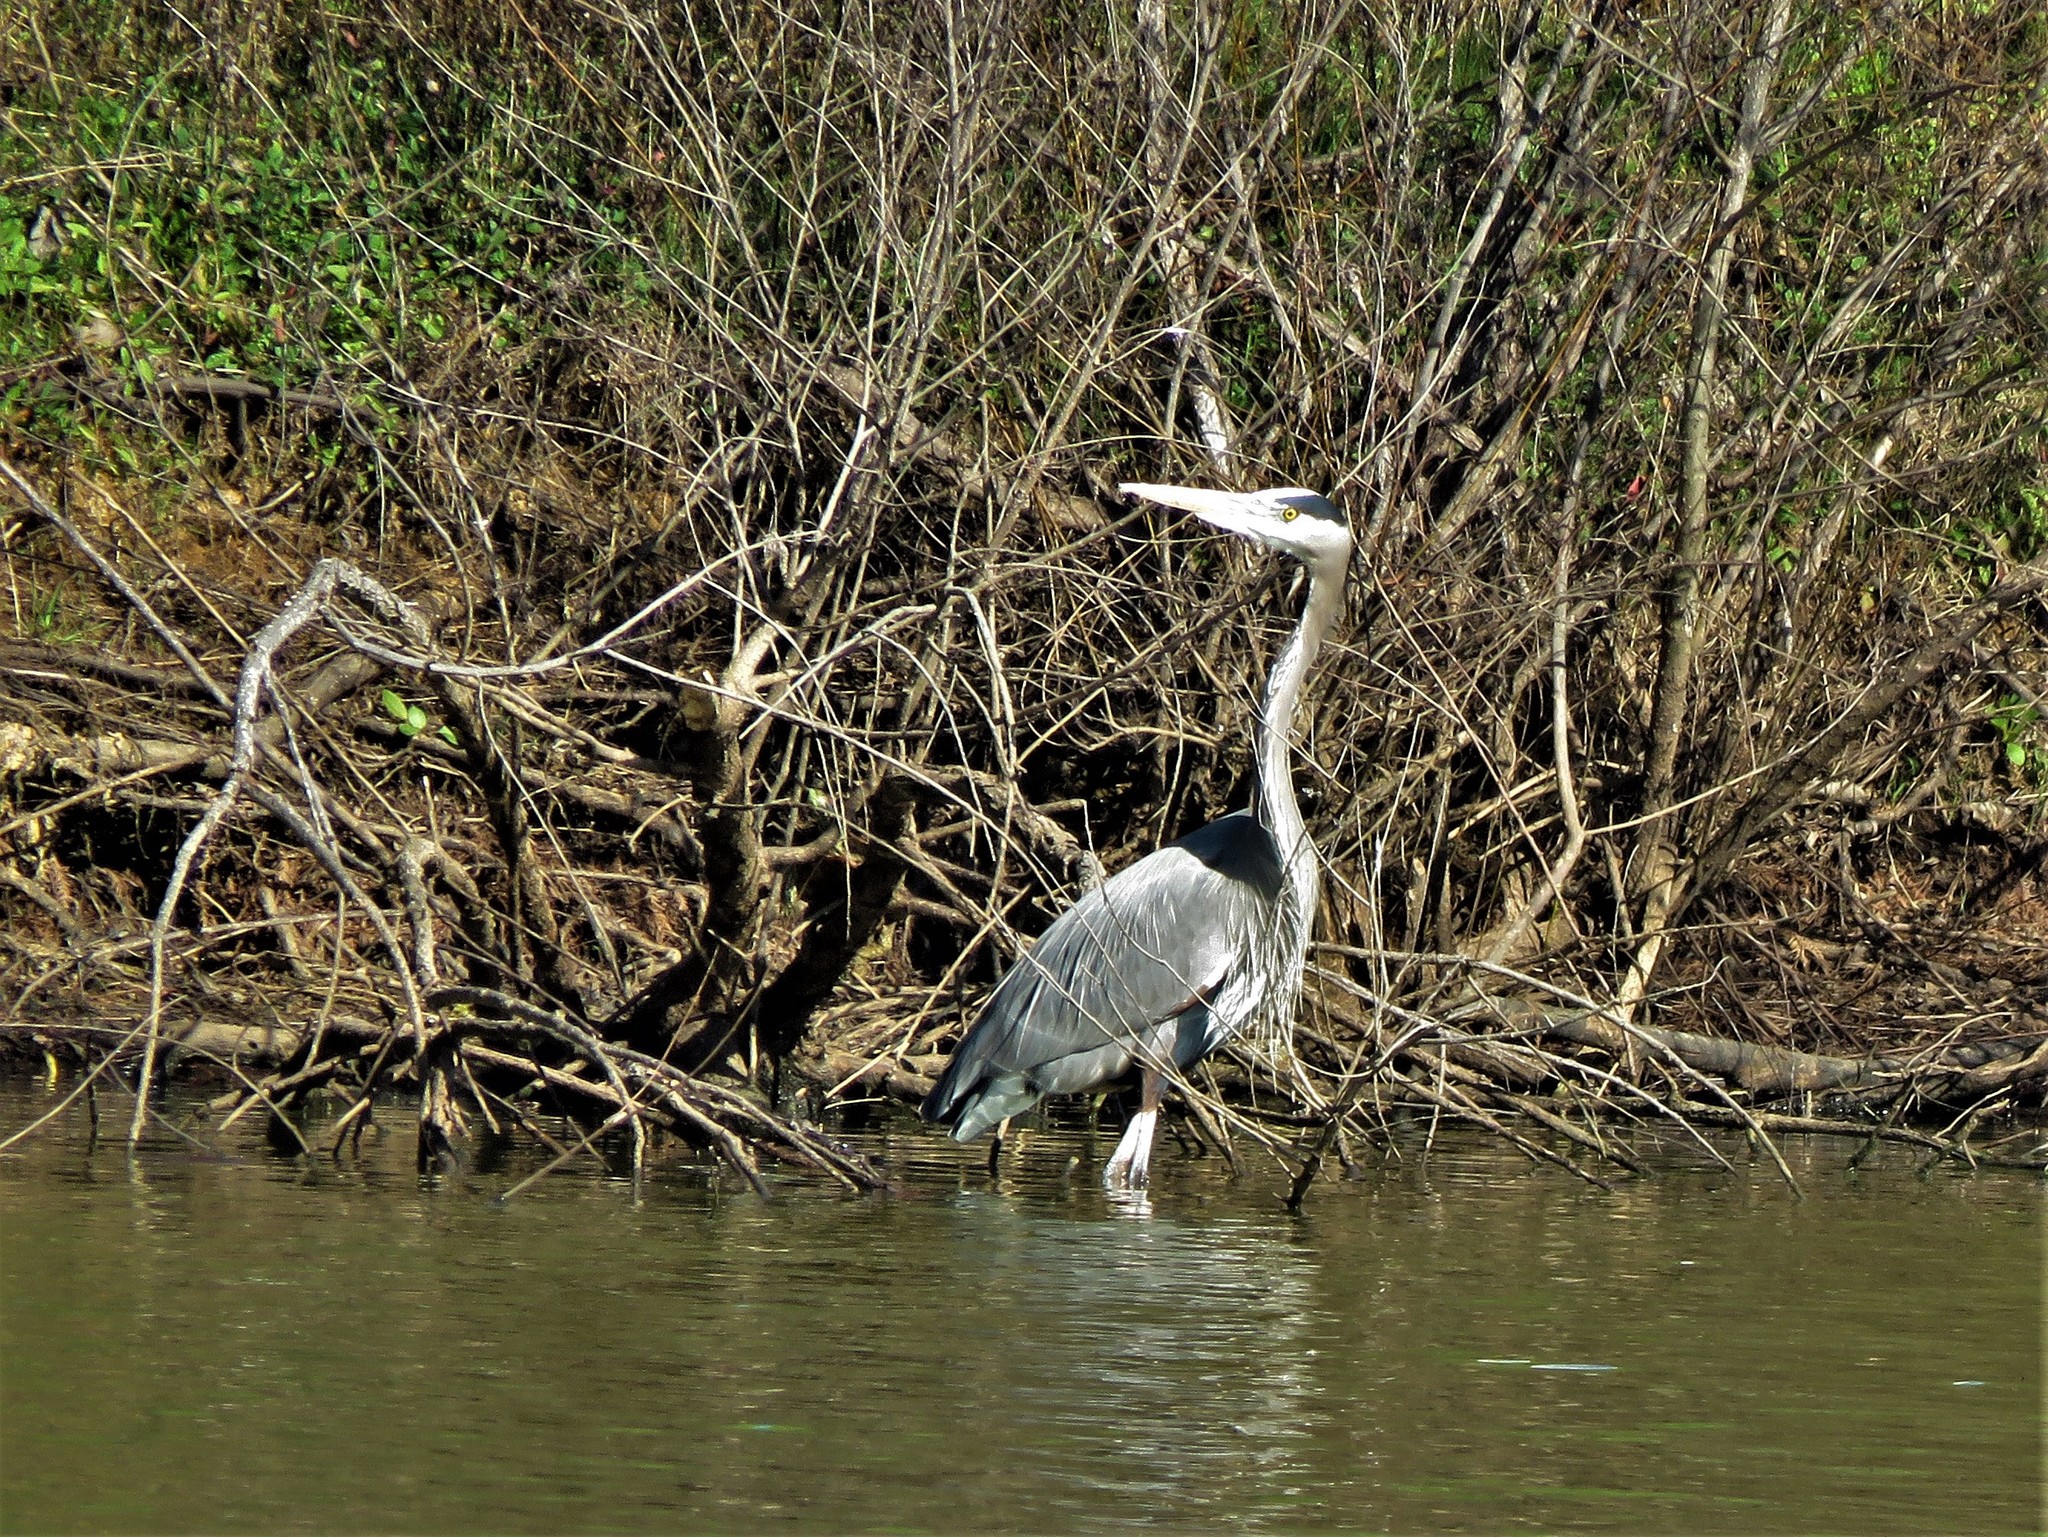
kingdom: Animalia
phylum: Chordata
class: Aves
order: Pelecaniformes
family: Ardeidae
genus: Ardea
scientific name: Ardea herodias
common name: Great blue heron
